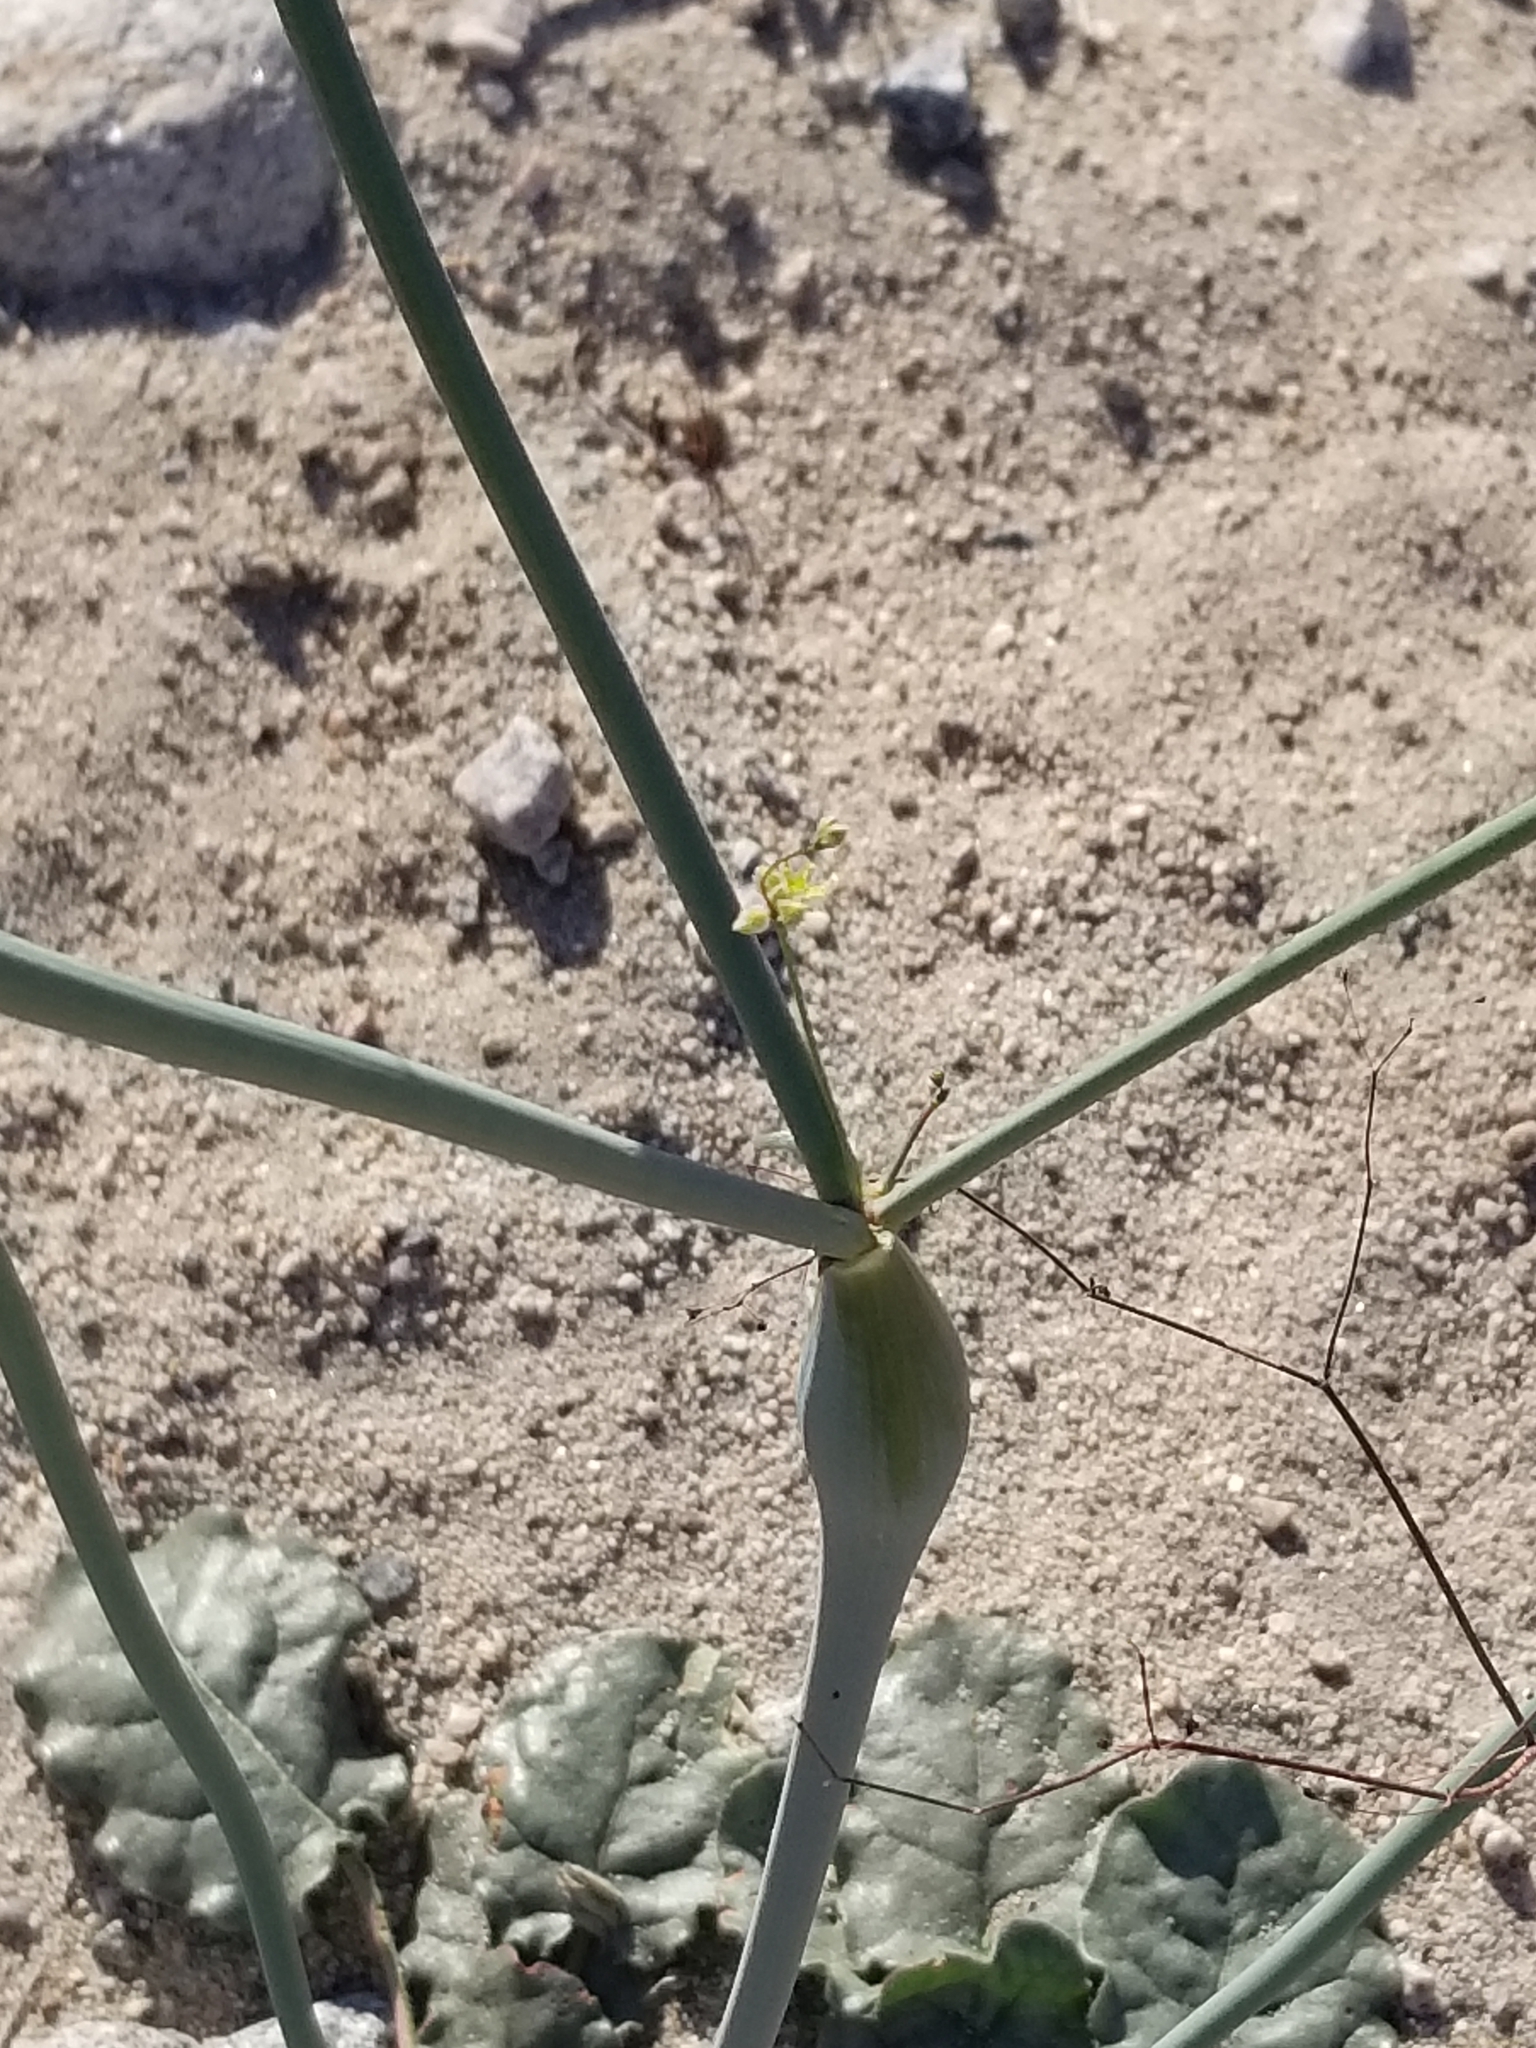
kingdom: Plantae
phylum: Tracheophyta
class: Magnoliopsida
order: Caryophyllales
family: Polygonaceae
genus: Eriogonum
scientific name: Eriogonum inflatum
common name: Desert trumpet
